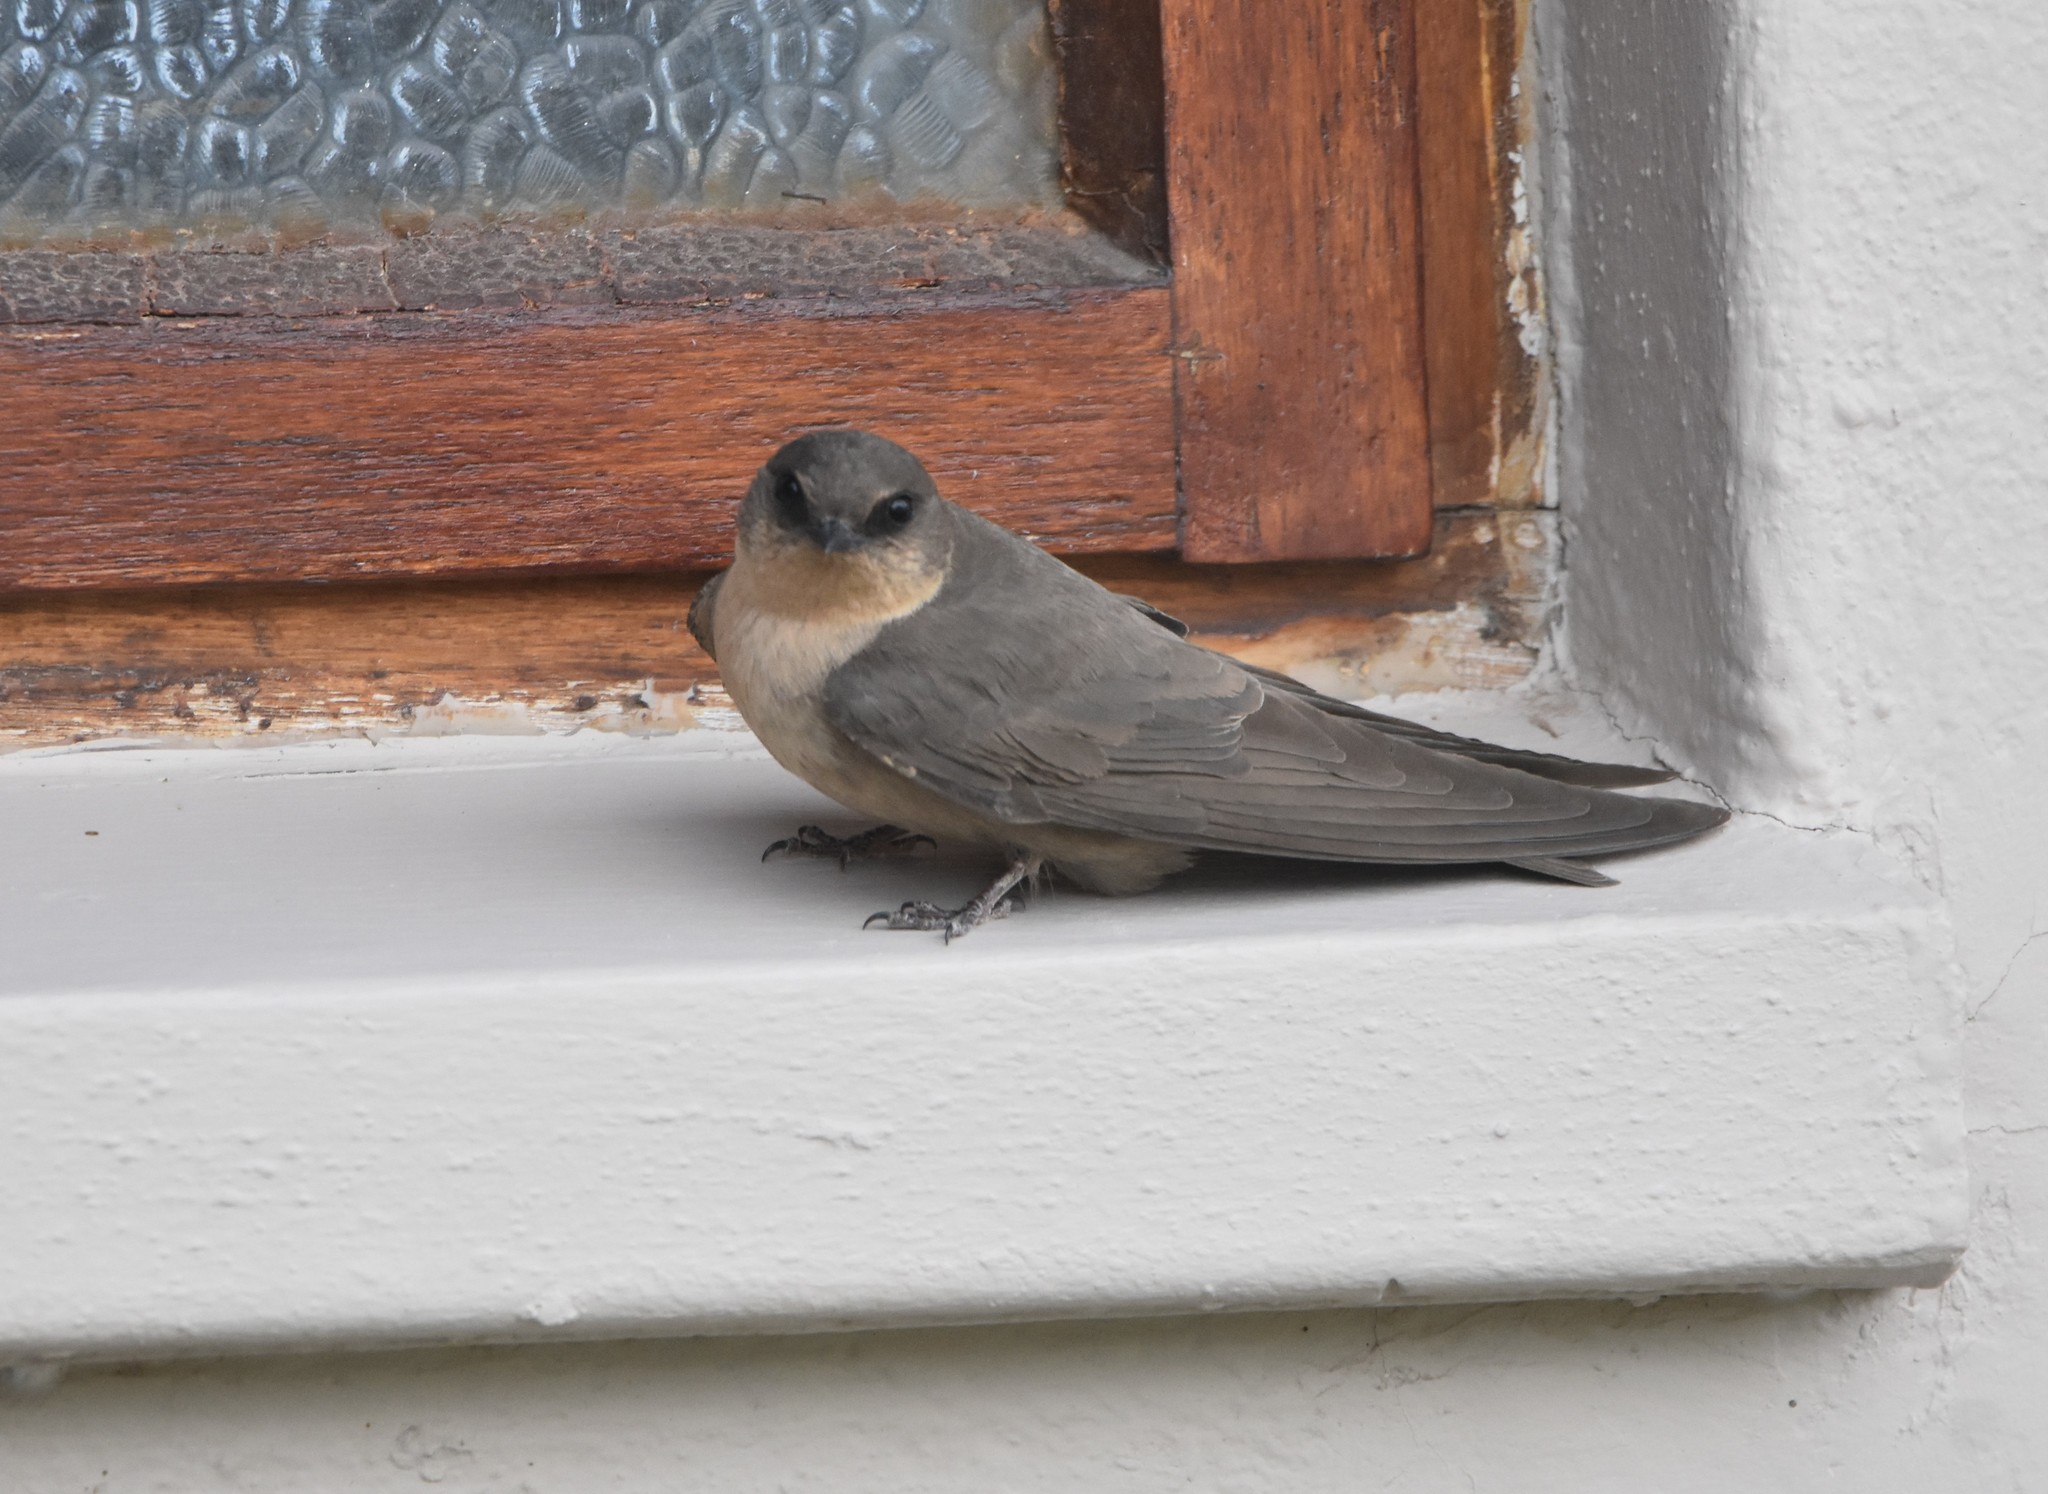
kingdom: Animalia
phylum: Chordata
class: Aves
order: Passeriformes
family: Hirundinidae
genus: Ptyonoprogne
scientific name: Ptyonoprogne fuligula
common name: Rock martin
